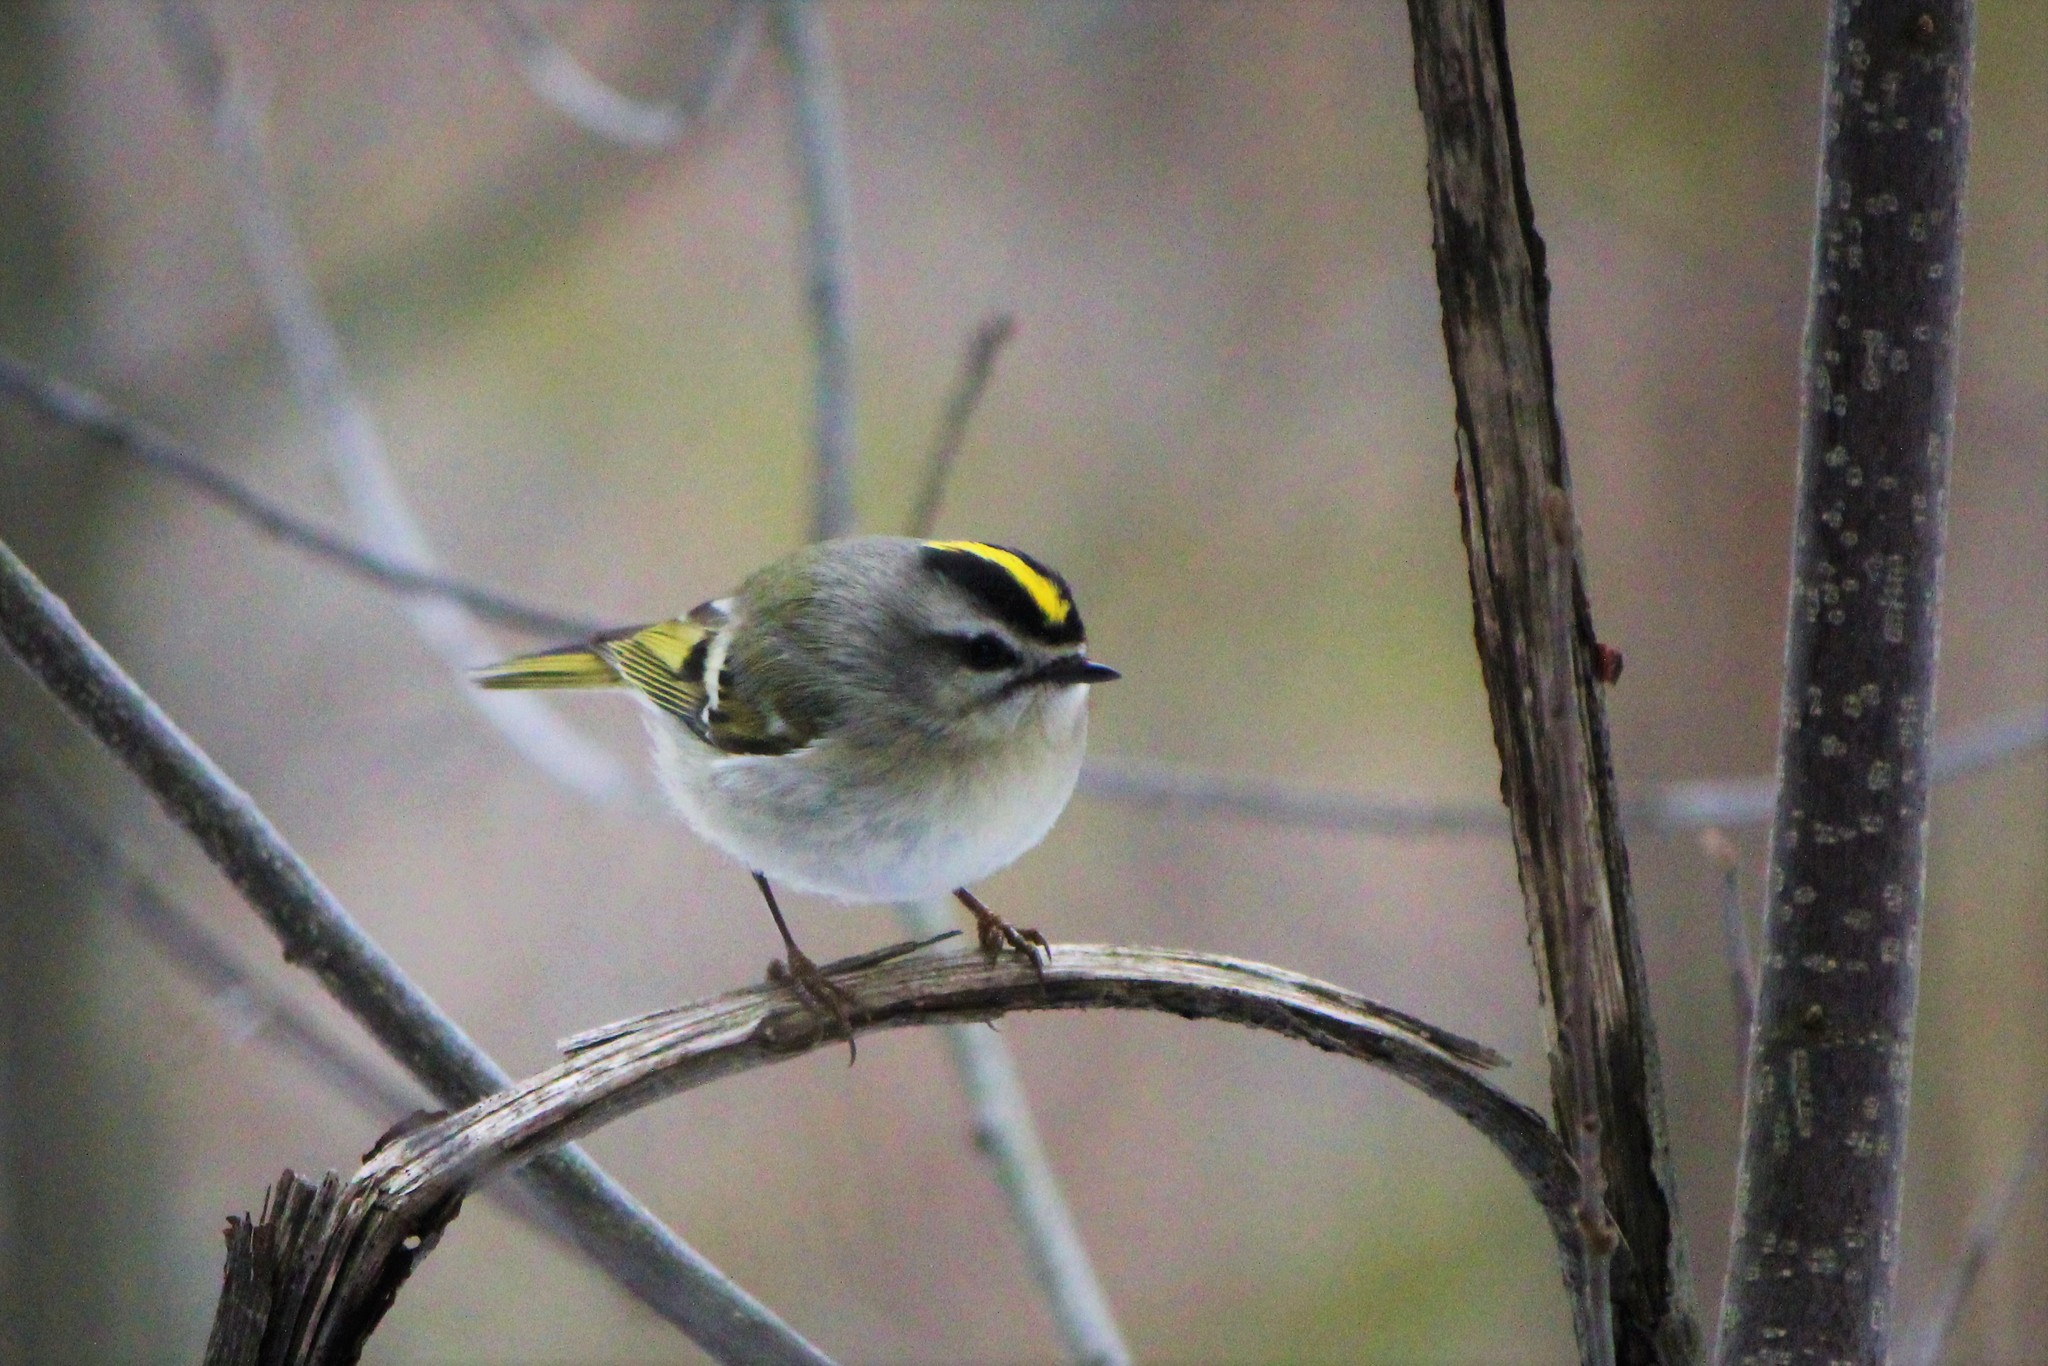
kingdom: Animalia
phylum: Chordata
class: Aves
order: Passeriformes
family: Regulidae
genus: Regulus
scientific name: Regulus satrapa
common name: Golden-crowned kinglet
